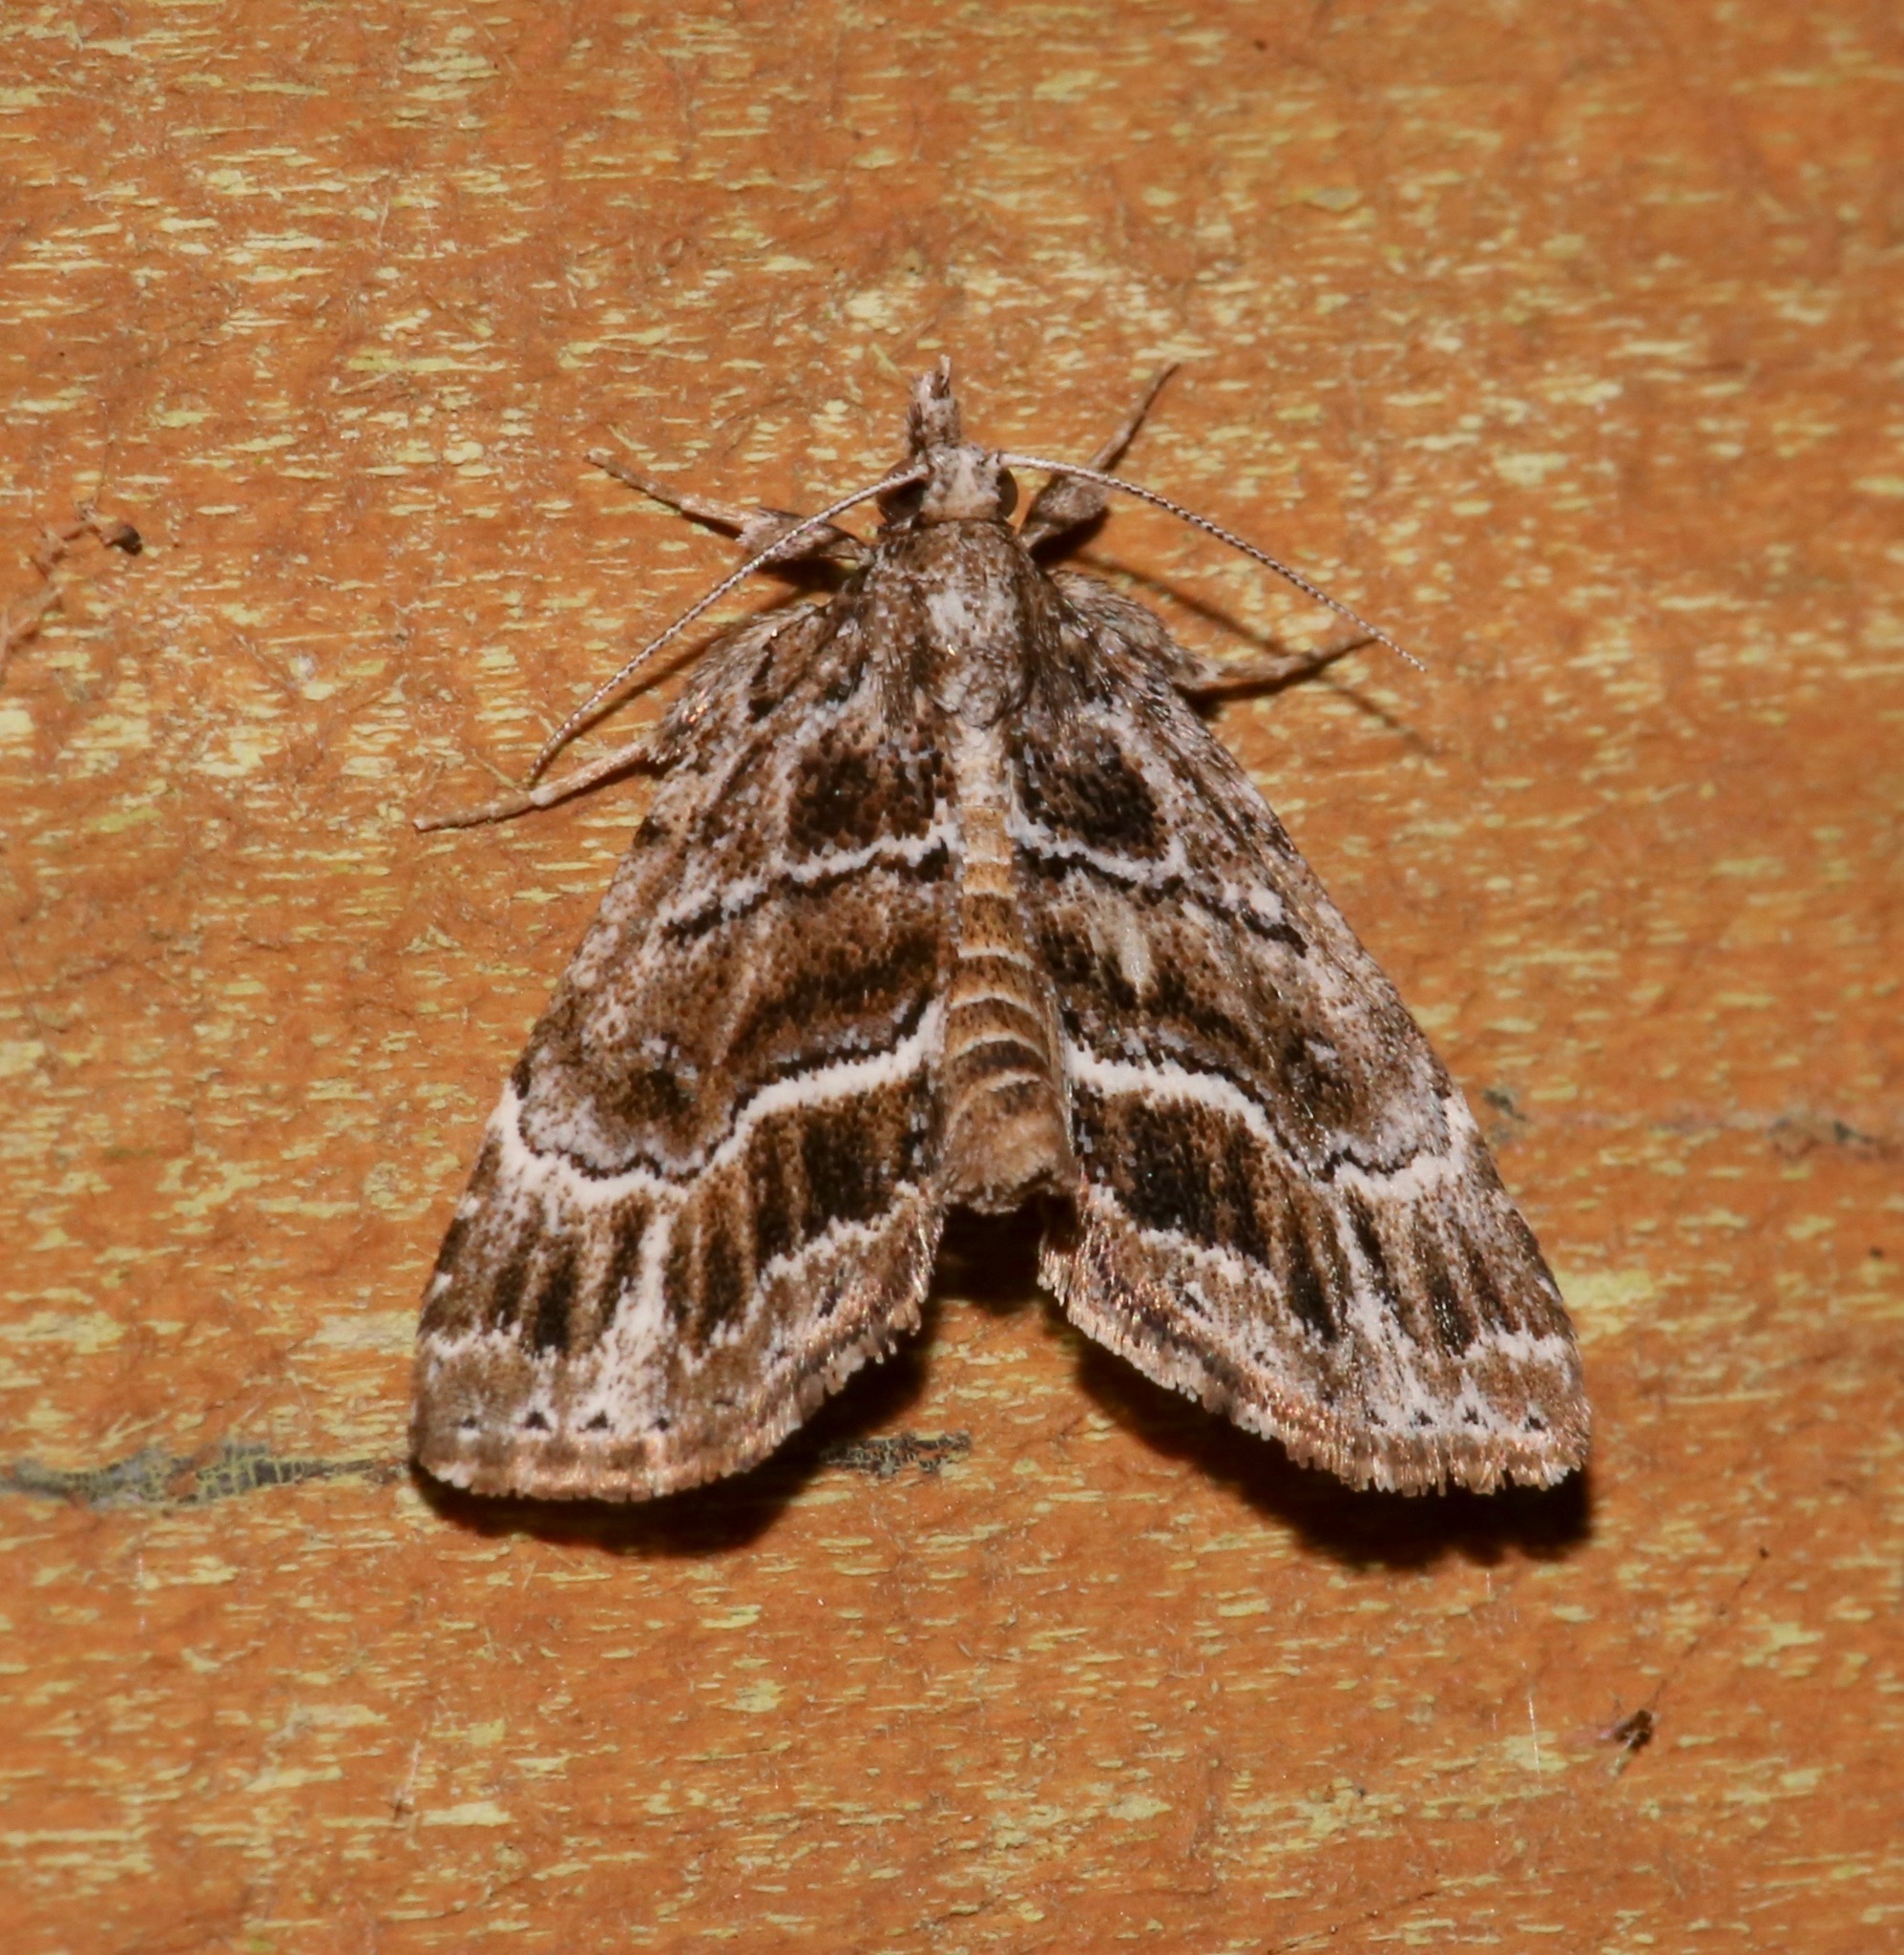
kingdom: Animalia
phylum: Arthropoda
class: Insecta
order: Lepidoptera
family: Erebidae
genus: Cutina
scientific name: Cutina arcuata
